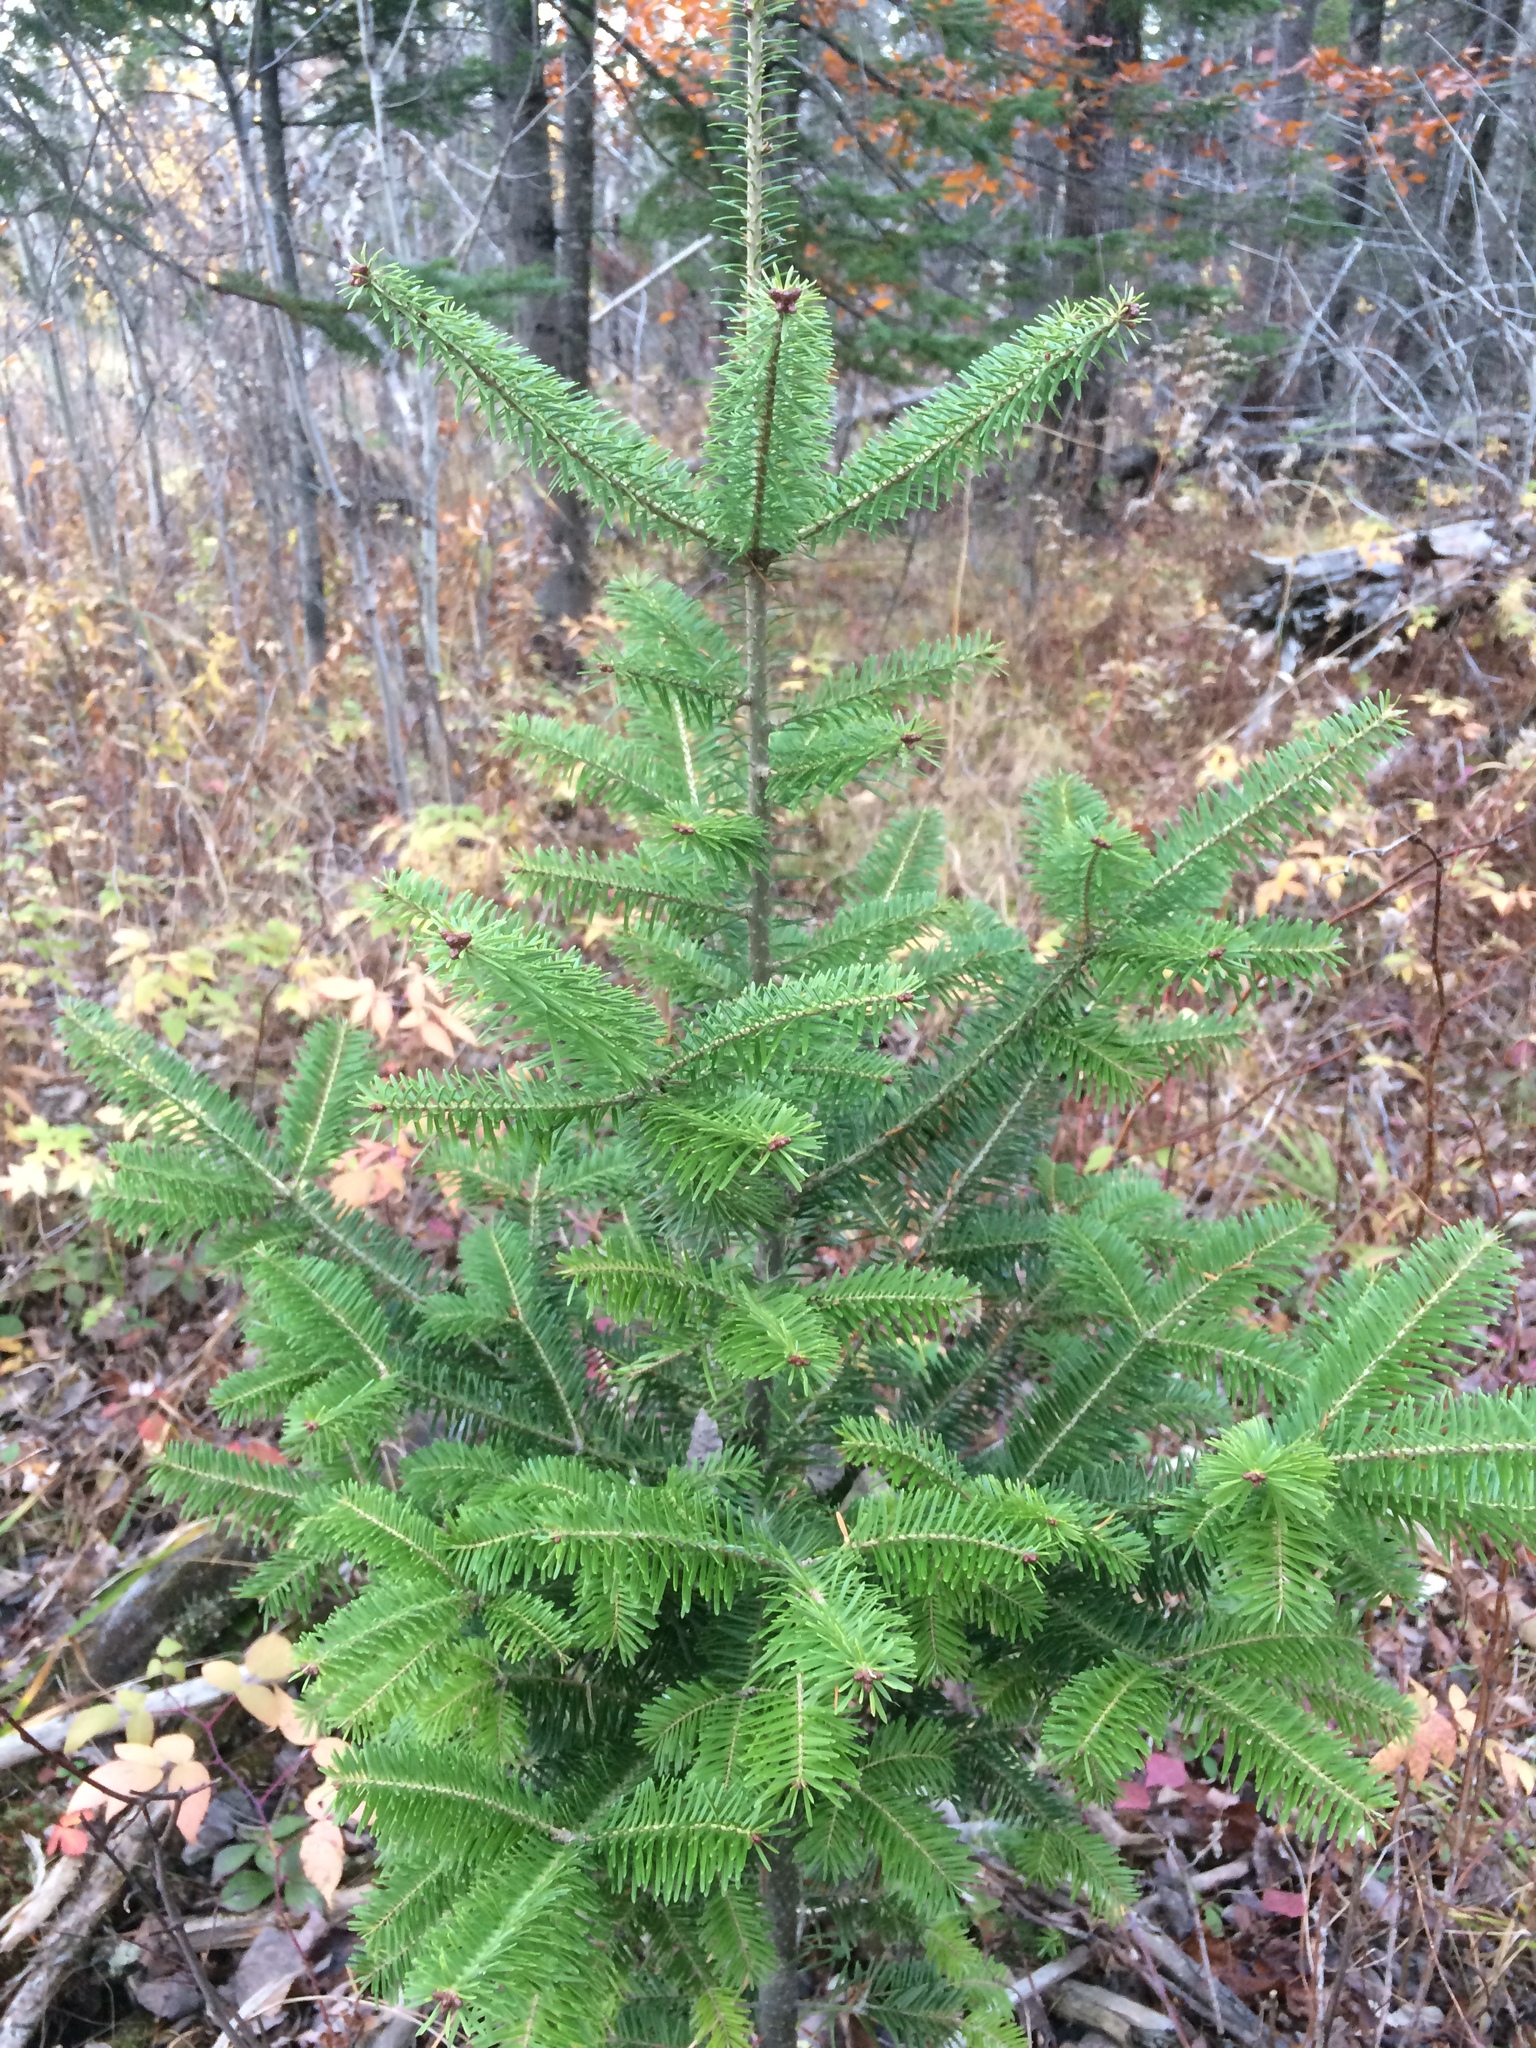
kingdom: Plantae
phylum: Tracheophyta
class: Pinopsida
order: Pinales
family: Pinaceae
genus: Abies
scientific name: Abies balsamea
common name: Balsam fir
